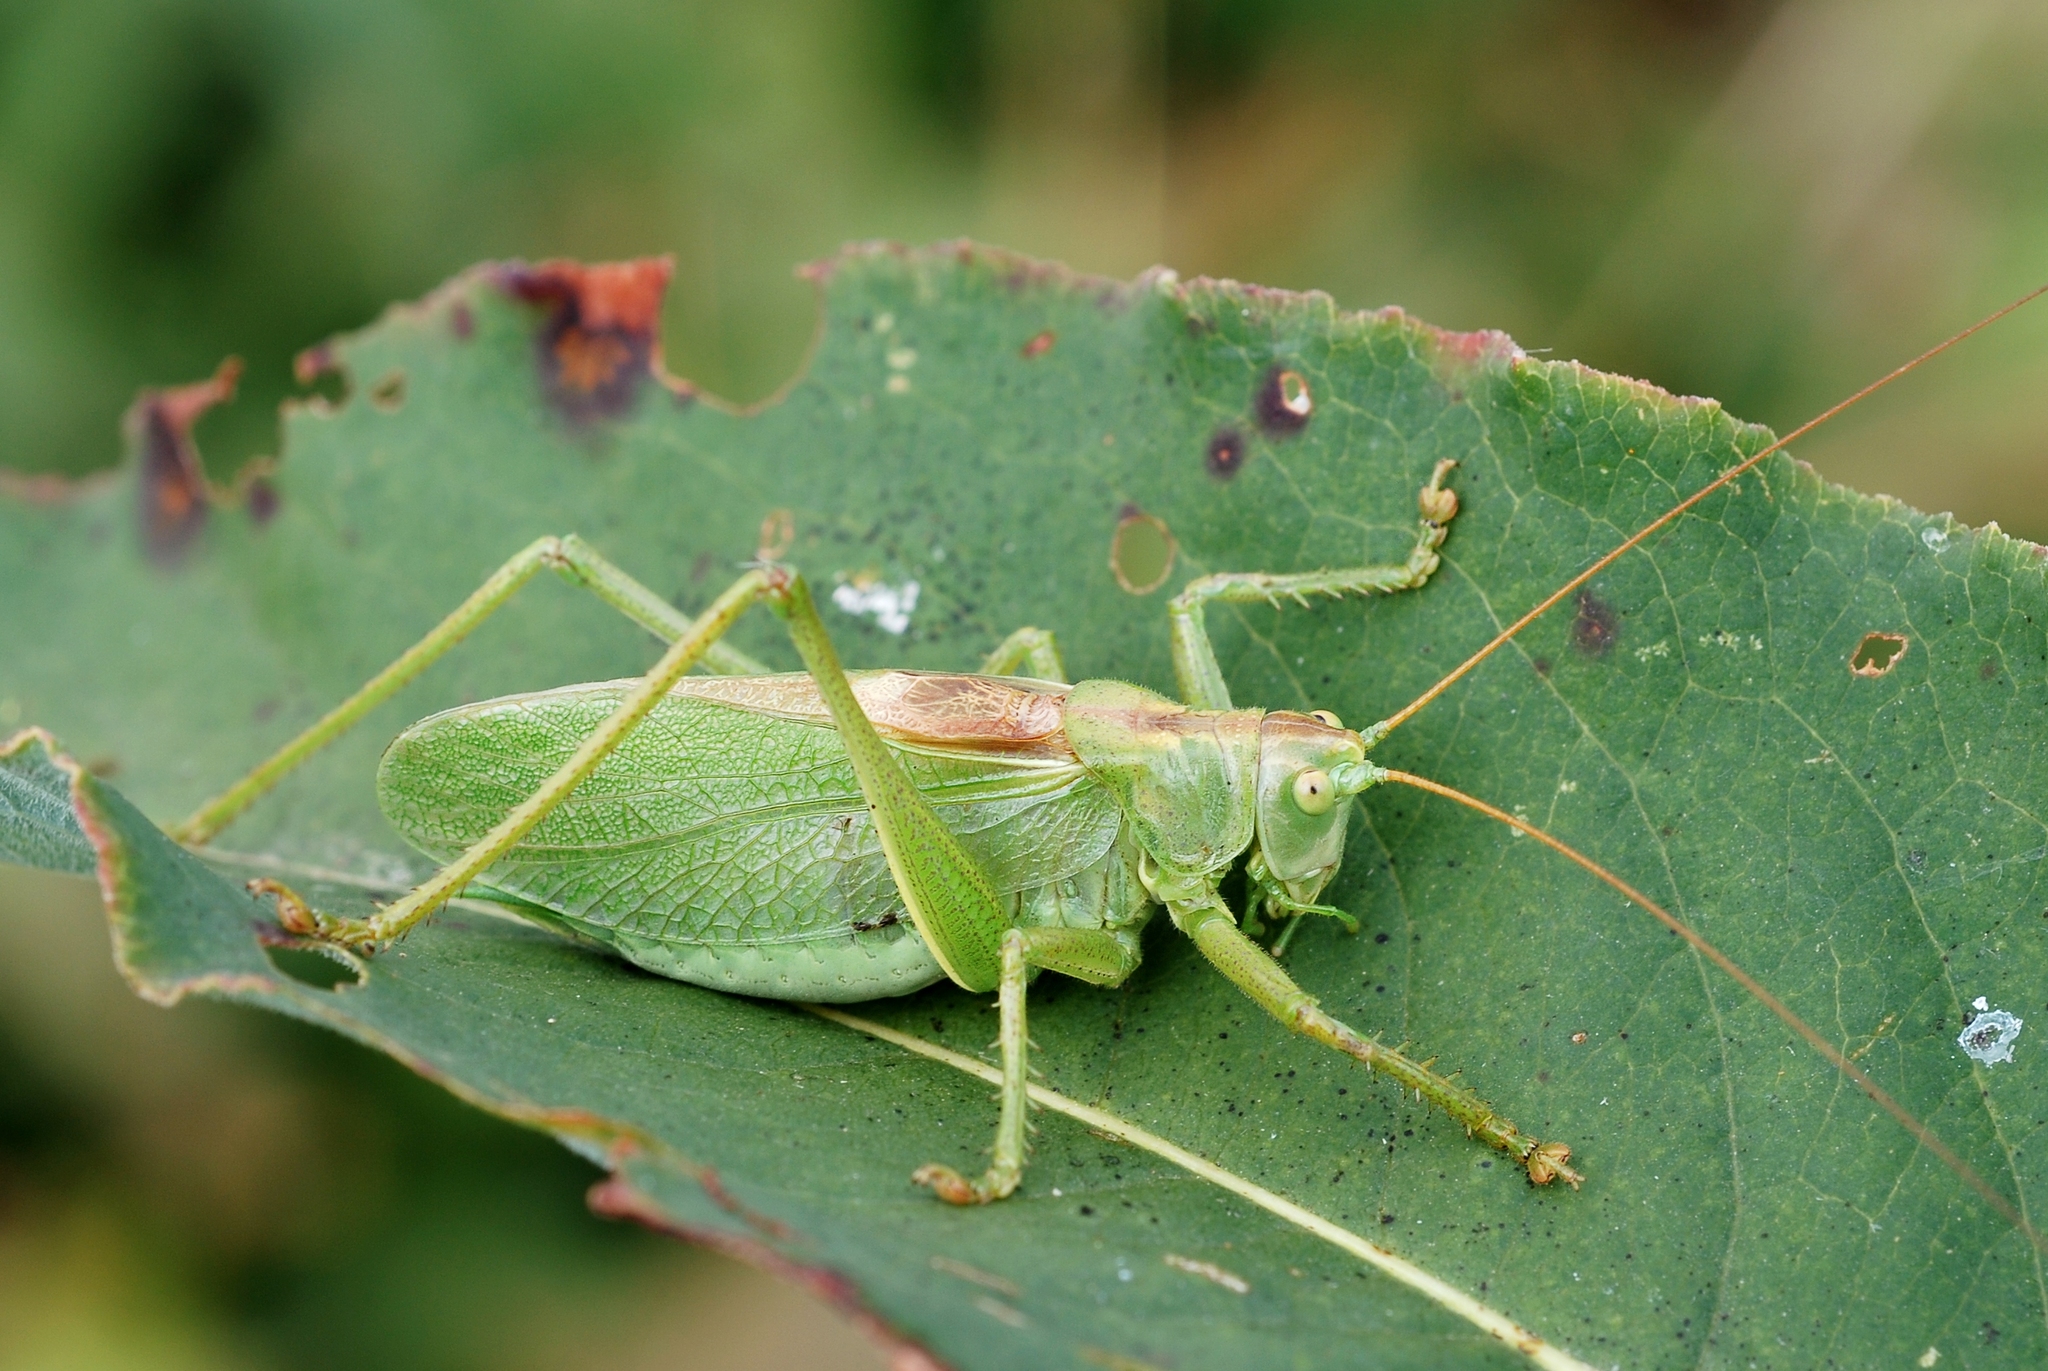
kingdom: Animalia
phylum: Arthropoda
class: Insecta
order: Orthoptera
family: Tettigoniidae
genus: Tettigonia
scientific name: Tettigonia cantans
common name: Upland green bush-cricket
